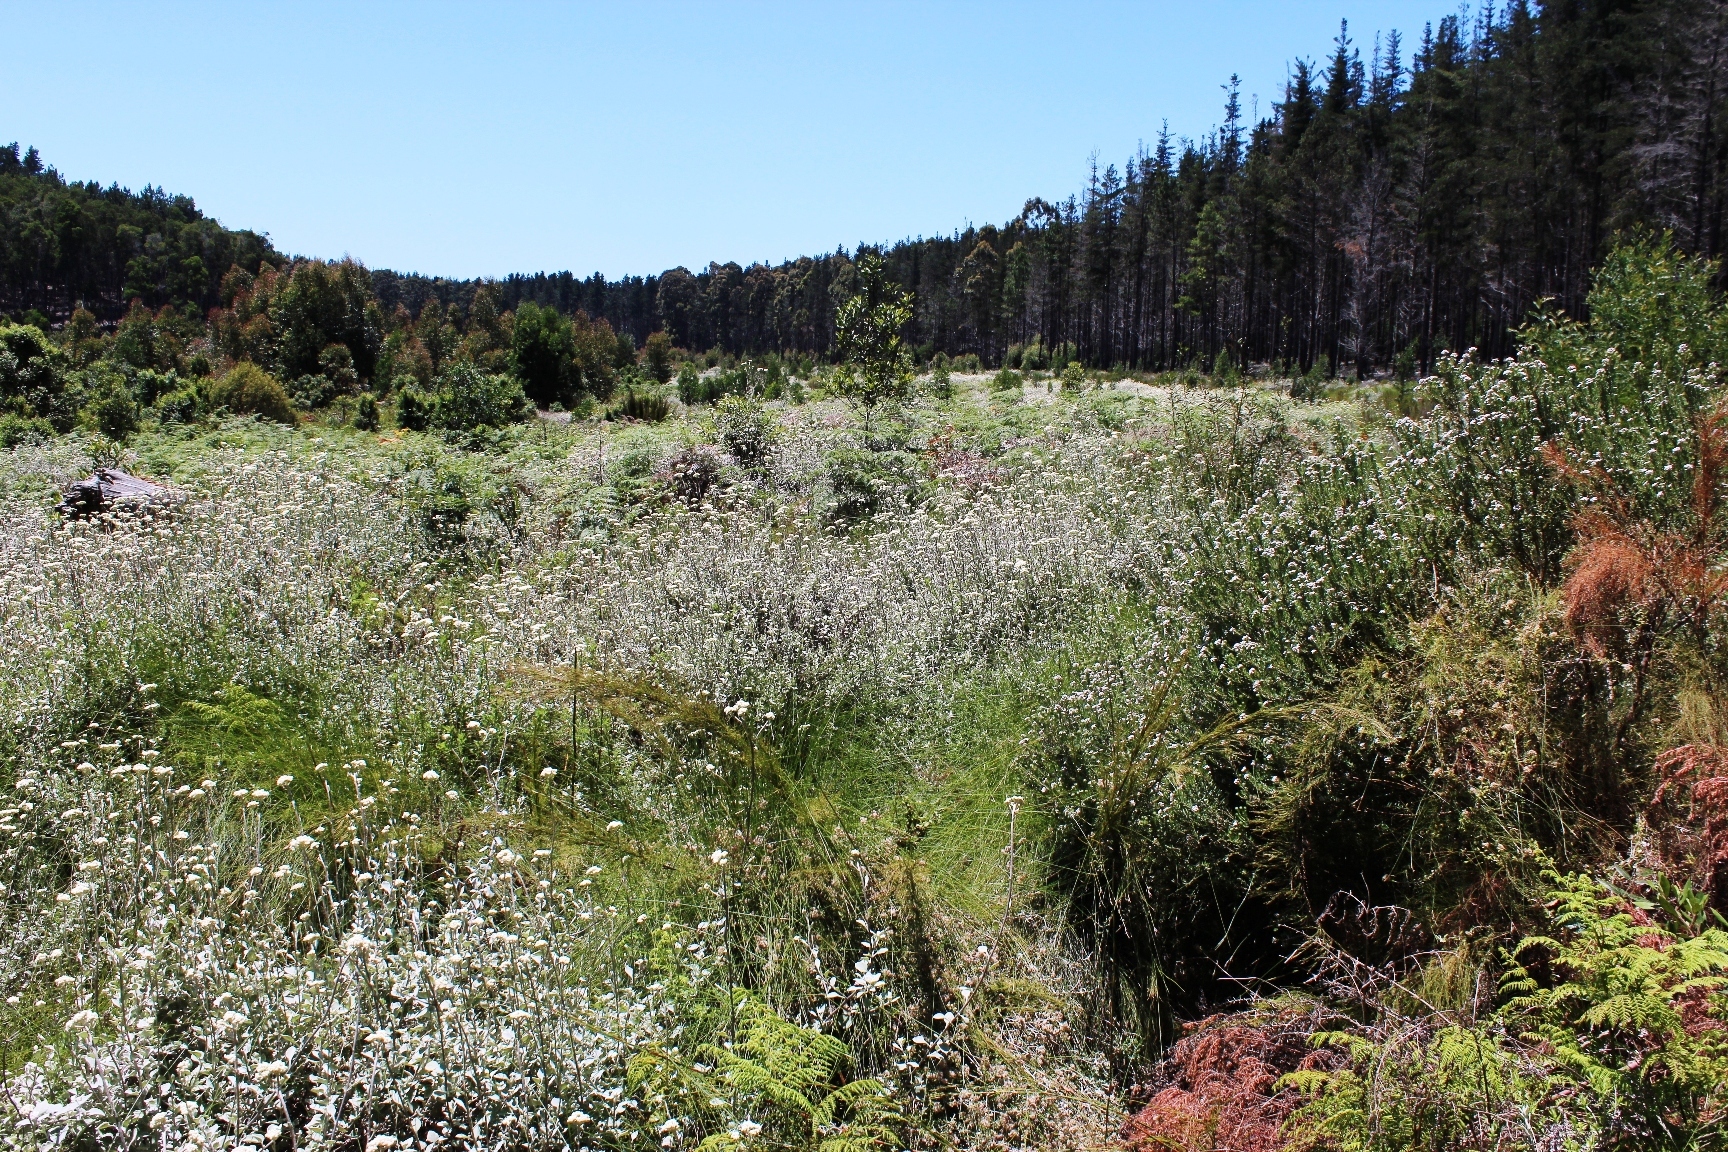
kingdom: Plantae
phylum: Tracheophyta
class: Magnoliopsida
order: Asterales
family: Asteraceae
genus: Helichrysum
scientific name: Helichrysum petiolare
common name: Licorice-plant
